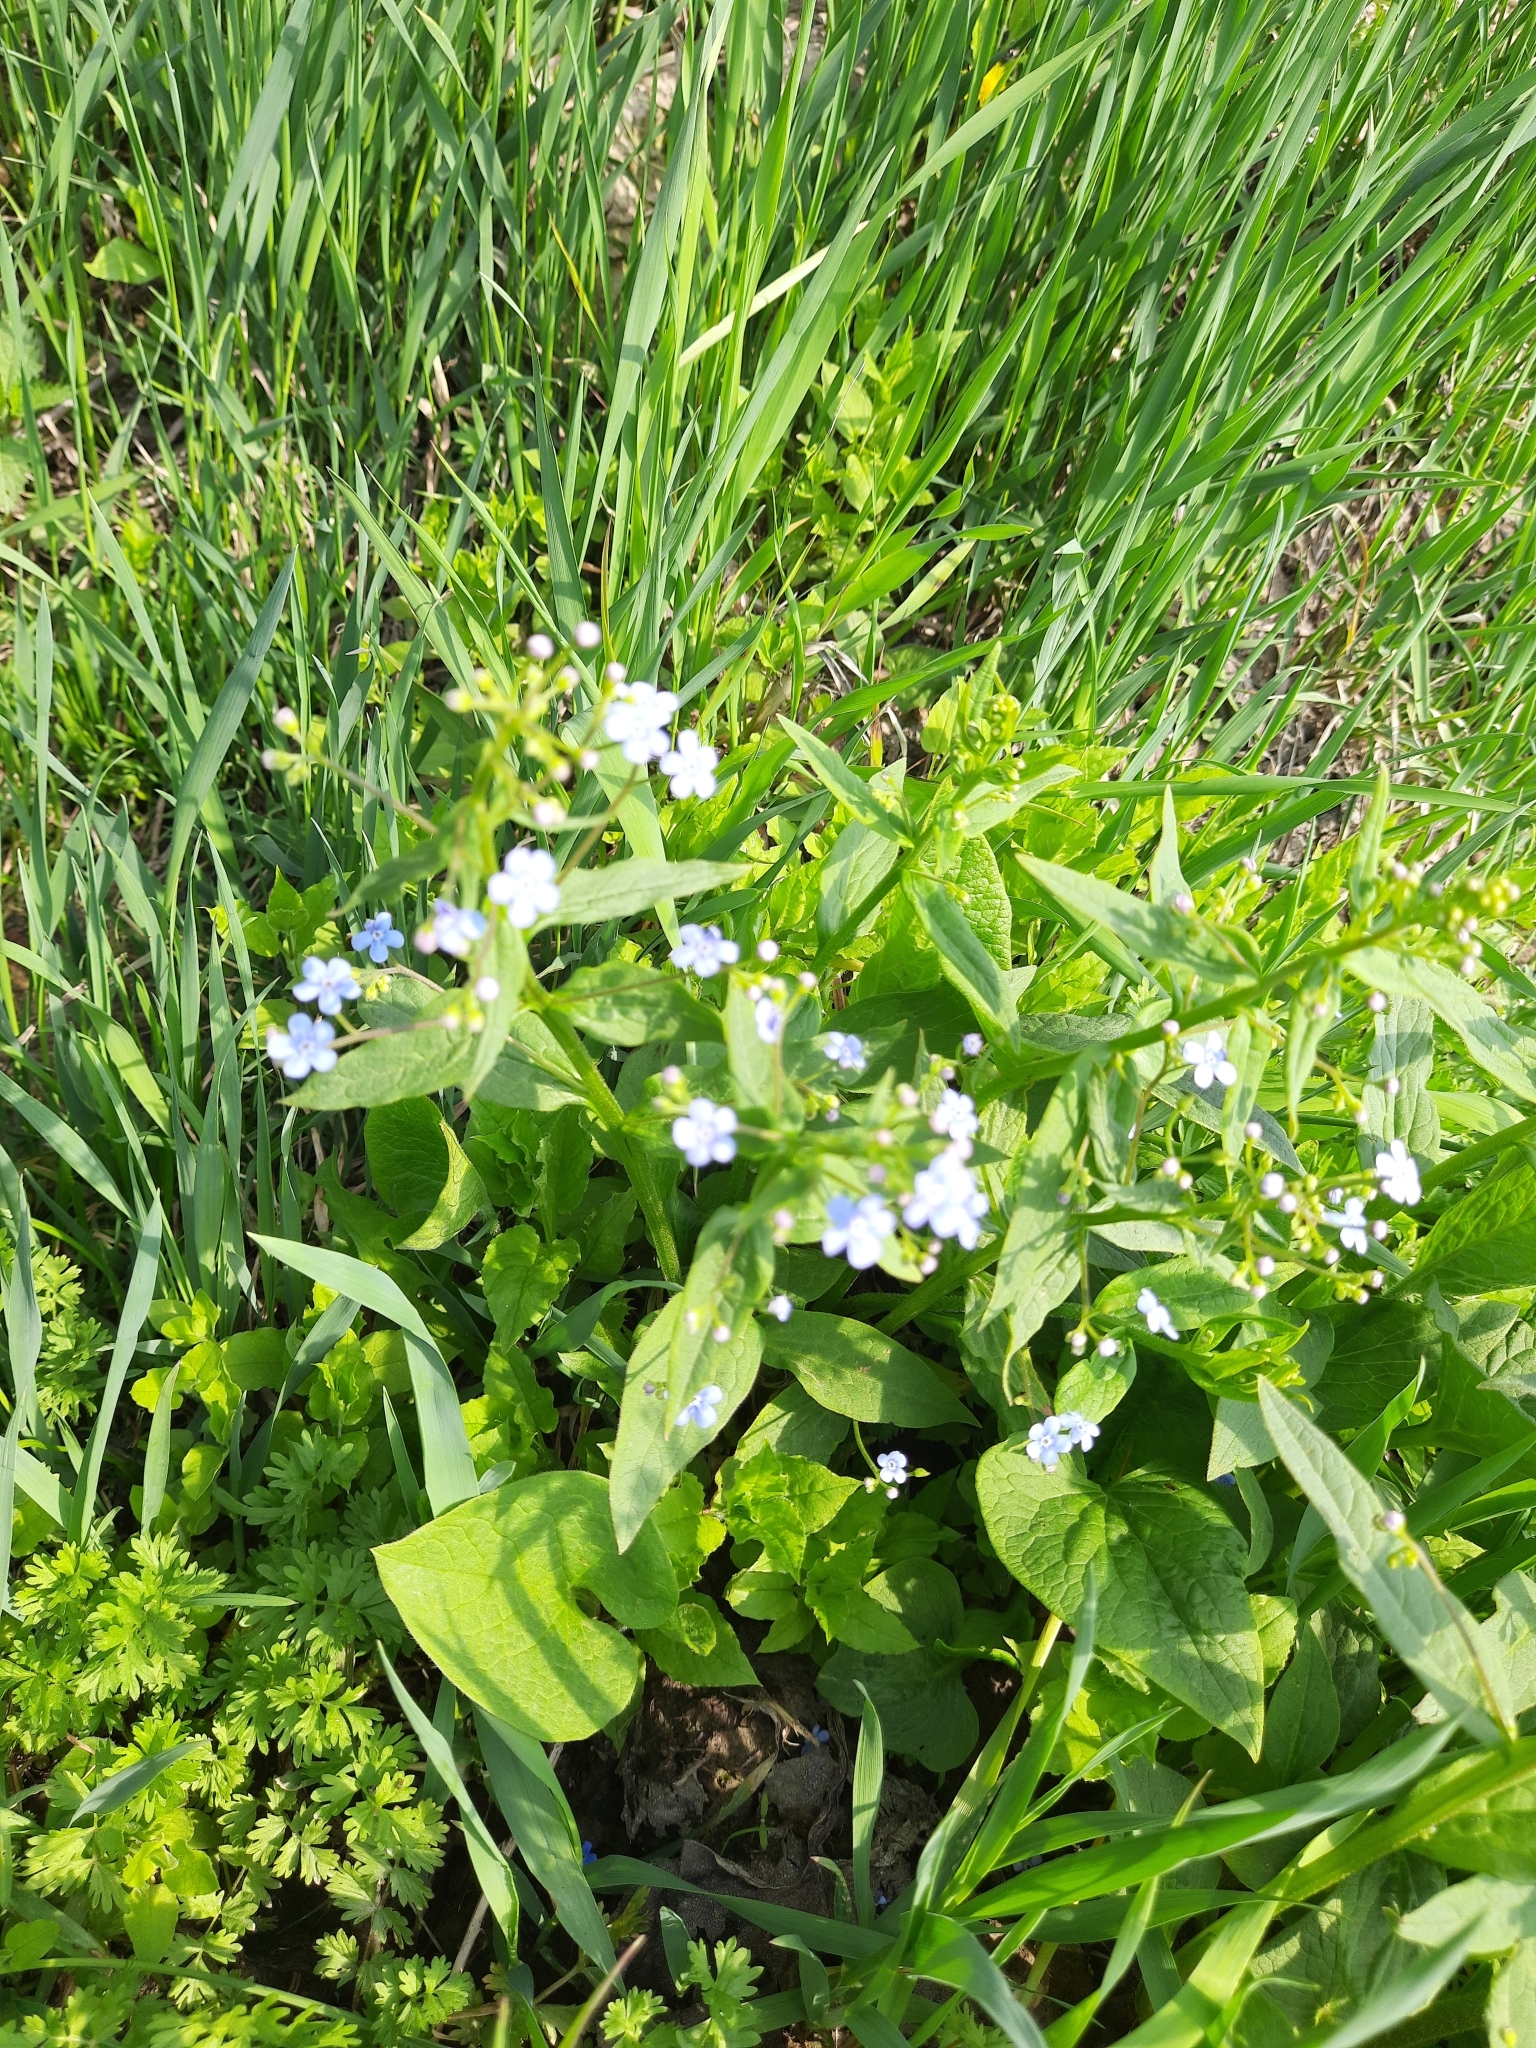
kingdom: Plantae
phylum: Tracheophyta
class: Magnoliopsida
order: Boraginales
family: Boraginaceae
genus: Brunnera
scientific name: Brunnera sibirica
